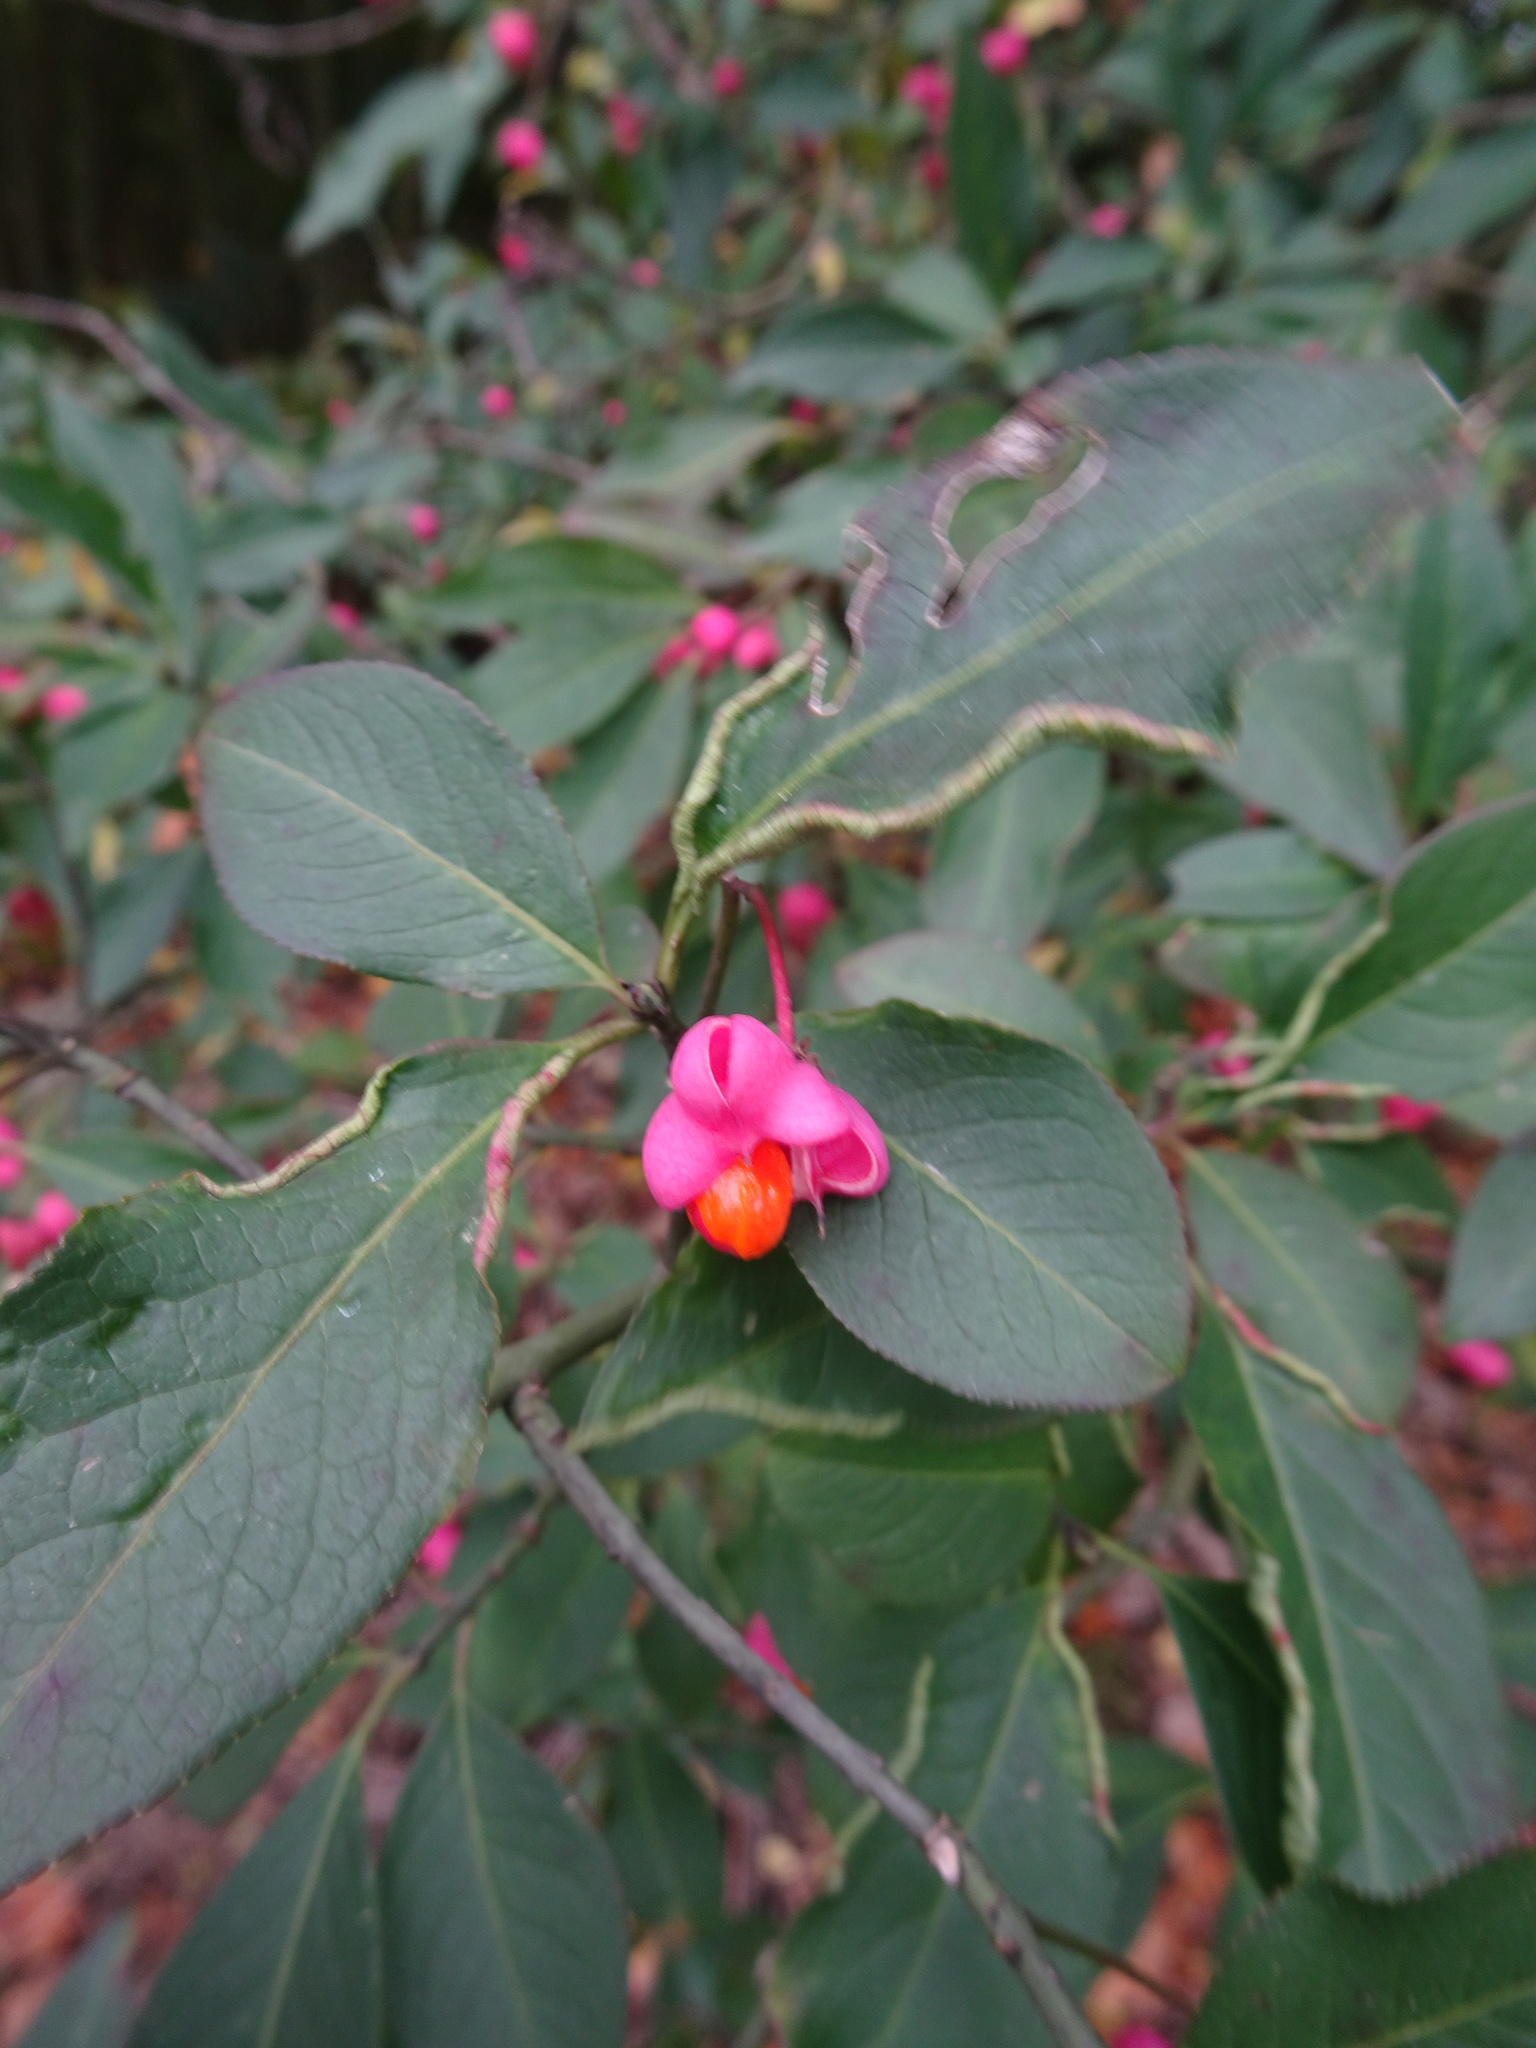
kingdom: Plantae
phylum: Tracheophyta
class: Magnoliopsida
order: Celastrales
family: Celastraceae
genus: Euonymus
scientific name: Euonymus europaeus
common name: Spindle
